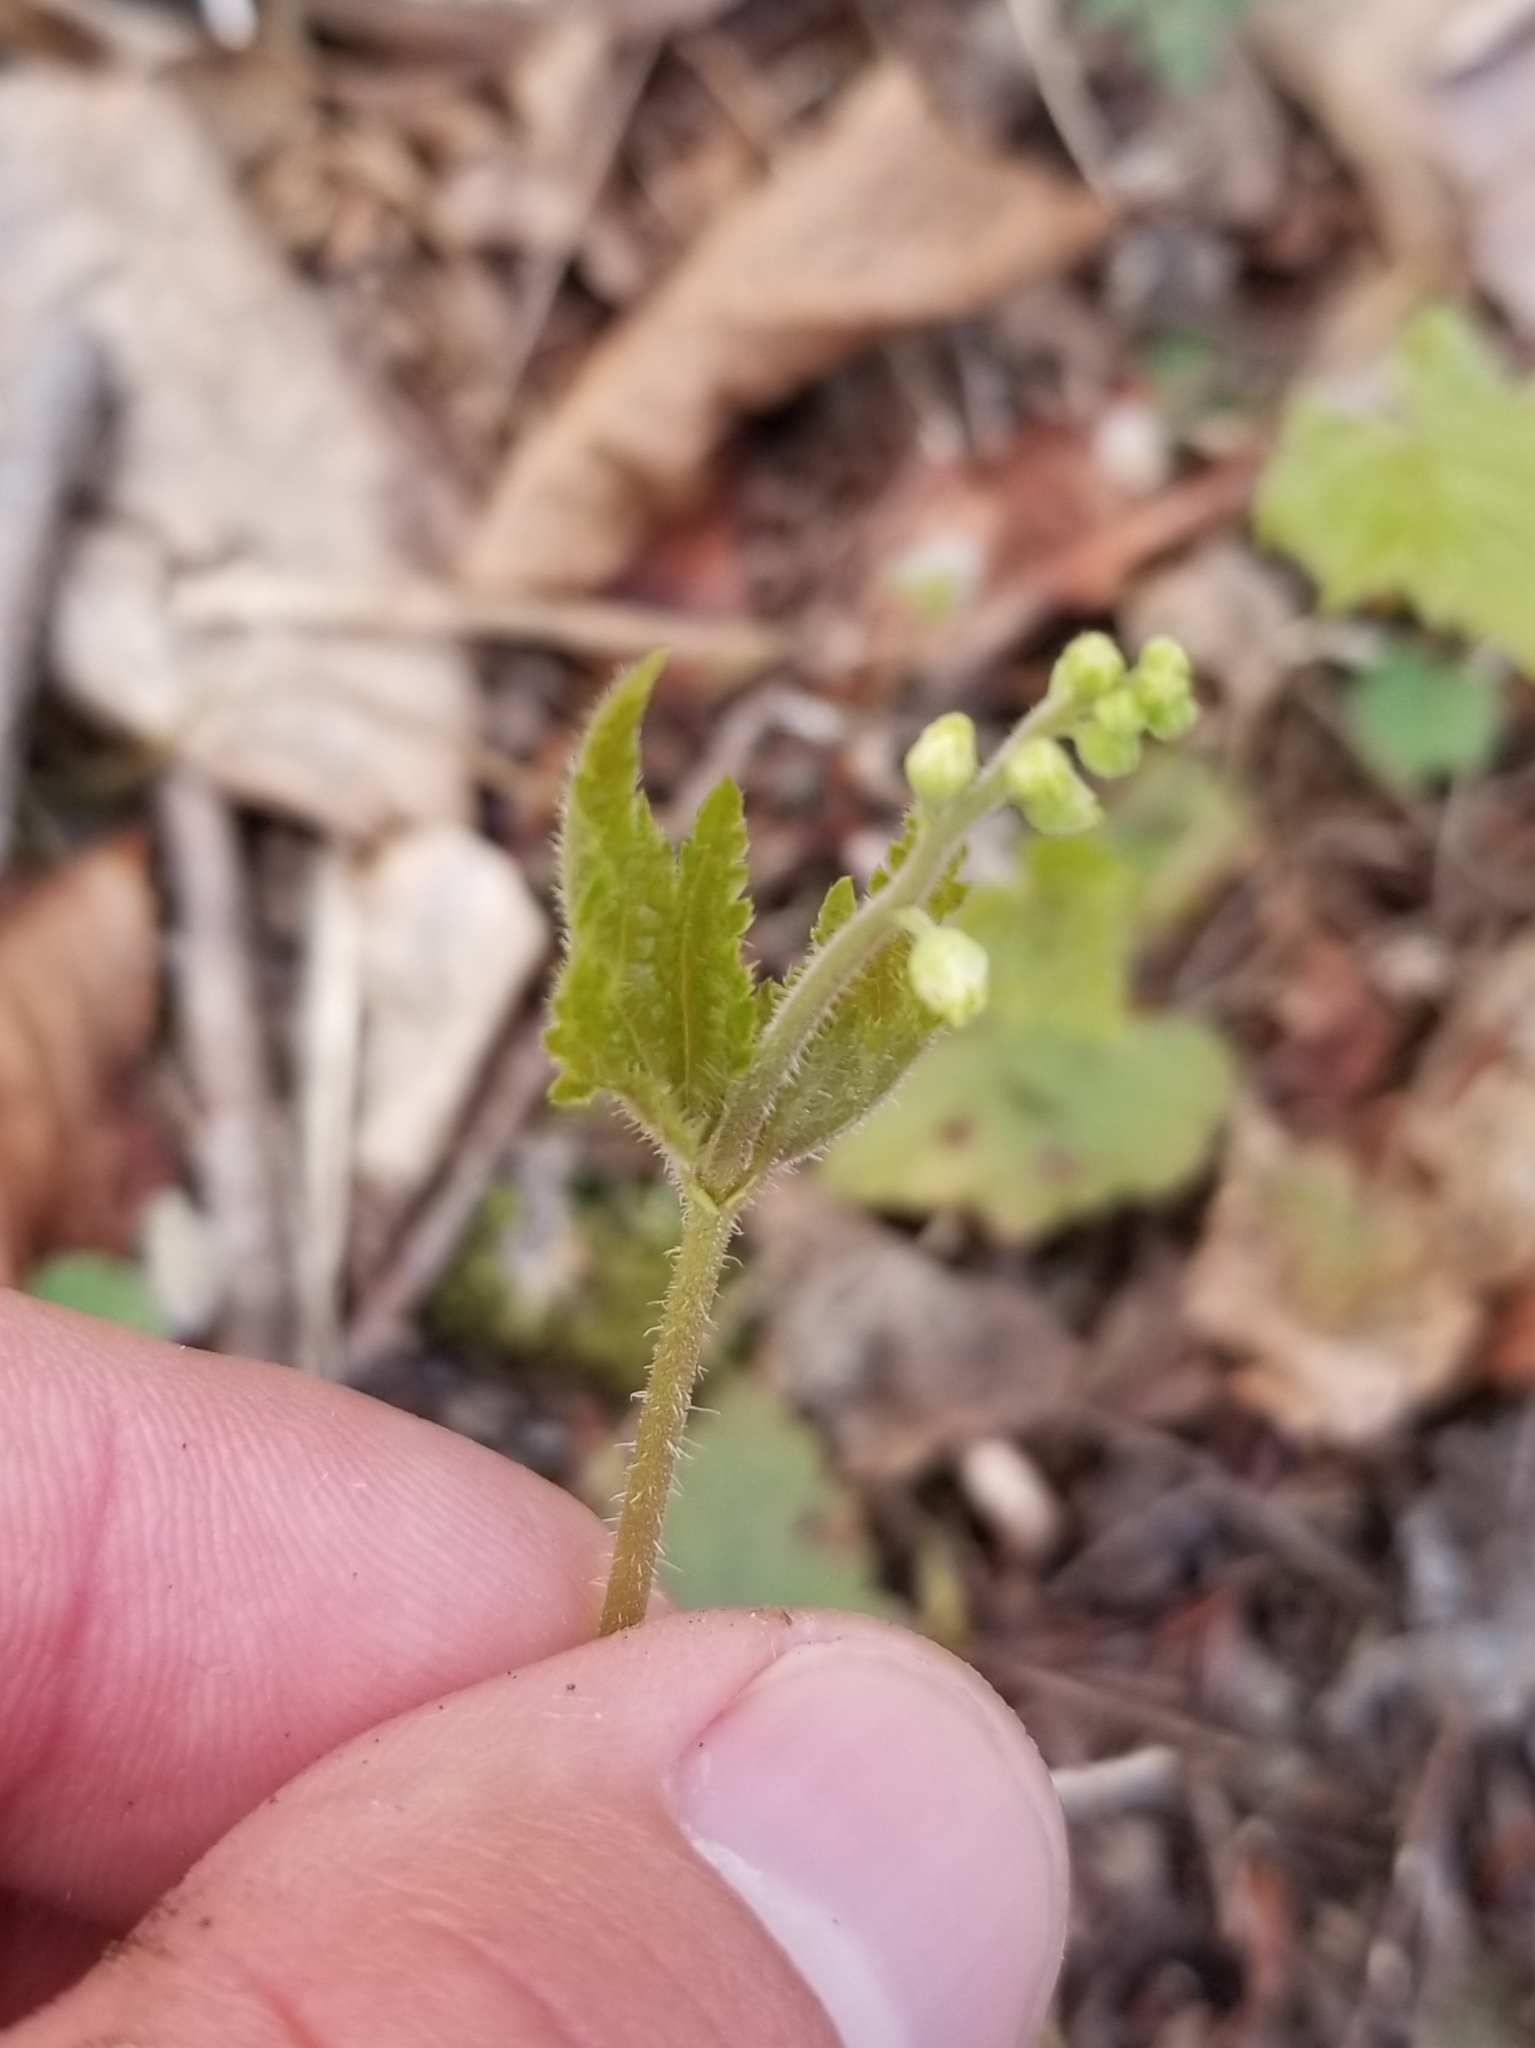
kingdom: Plantae
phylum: Tracheophyta
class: Magnoliopsida
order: Saxifragales
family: Saxifragaceae
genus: Mitella
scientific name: Mitella diphylla
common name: Coolwort
